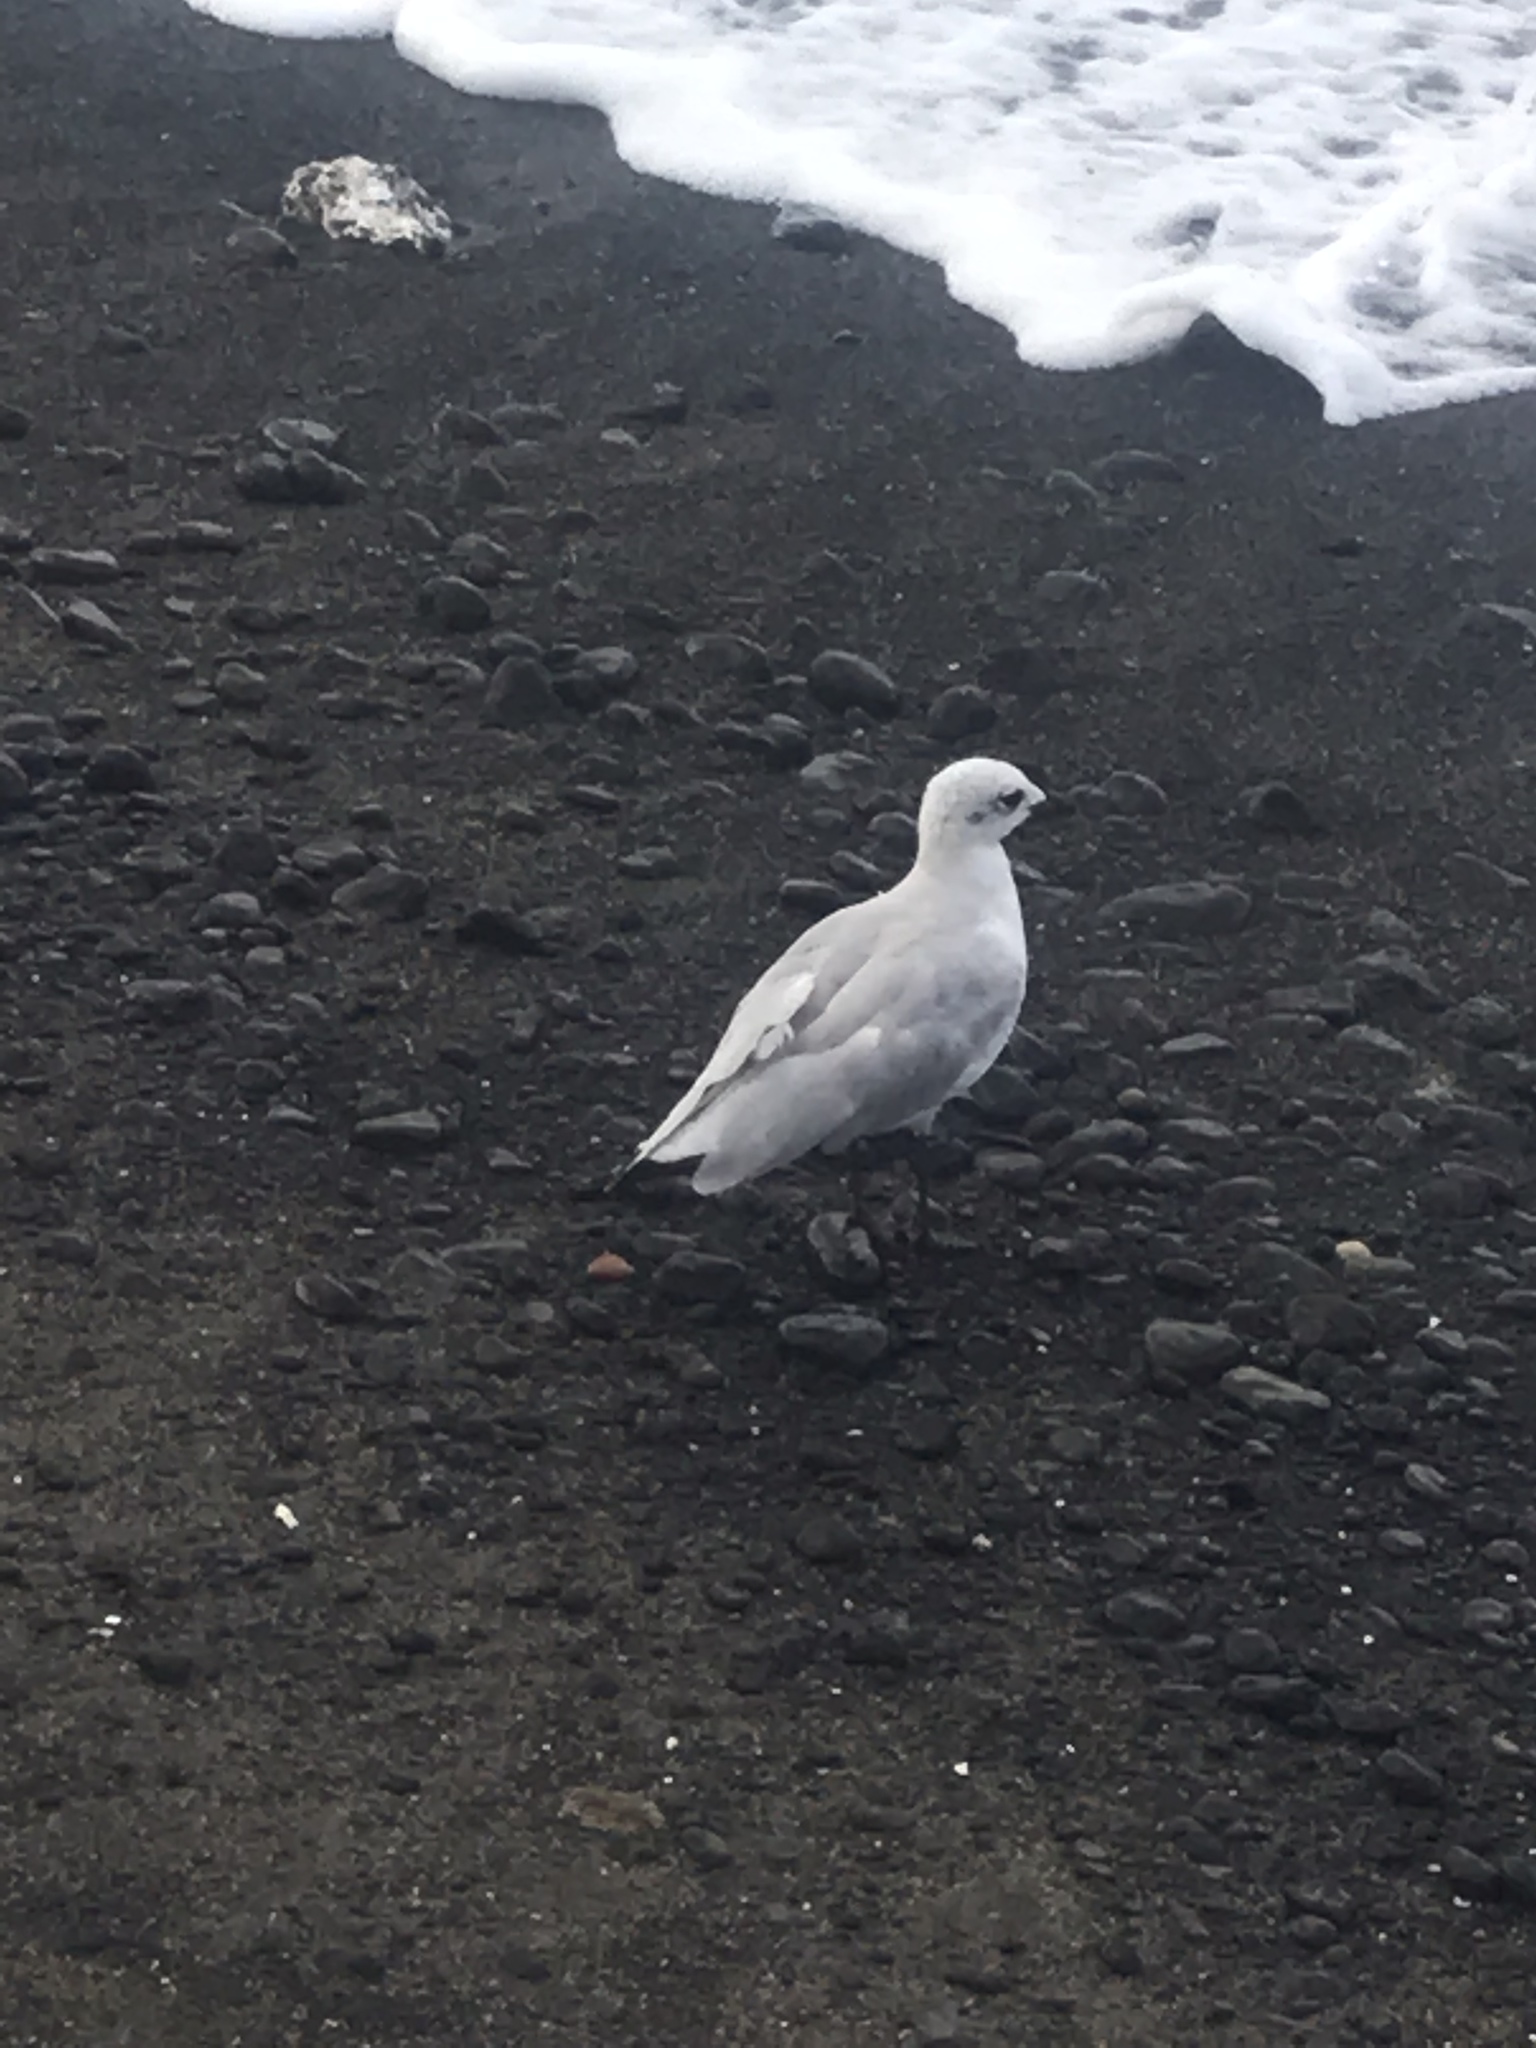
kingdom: Animalia
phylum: Chordata
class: Aves
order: Charadriiformes
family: Laridae
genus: Ichthyaetus
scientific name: Ichthyaetus melanocephalus
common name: Mediterranean gull
